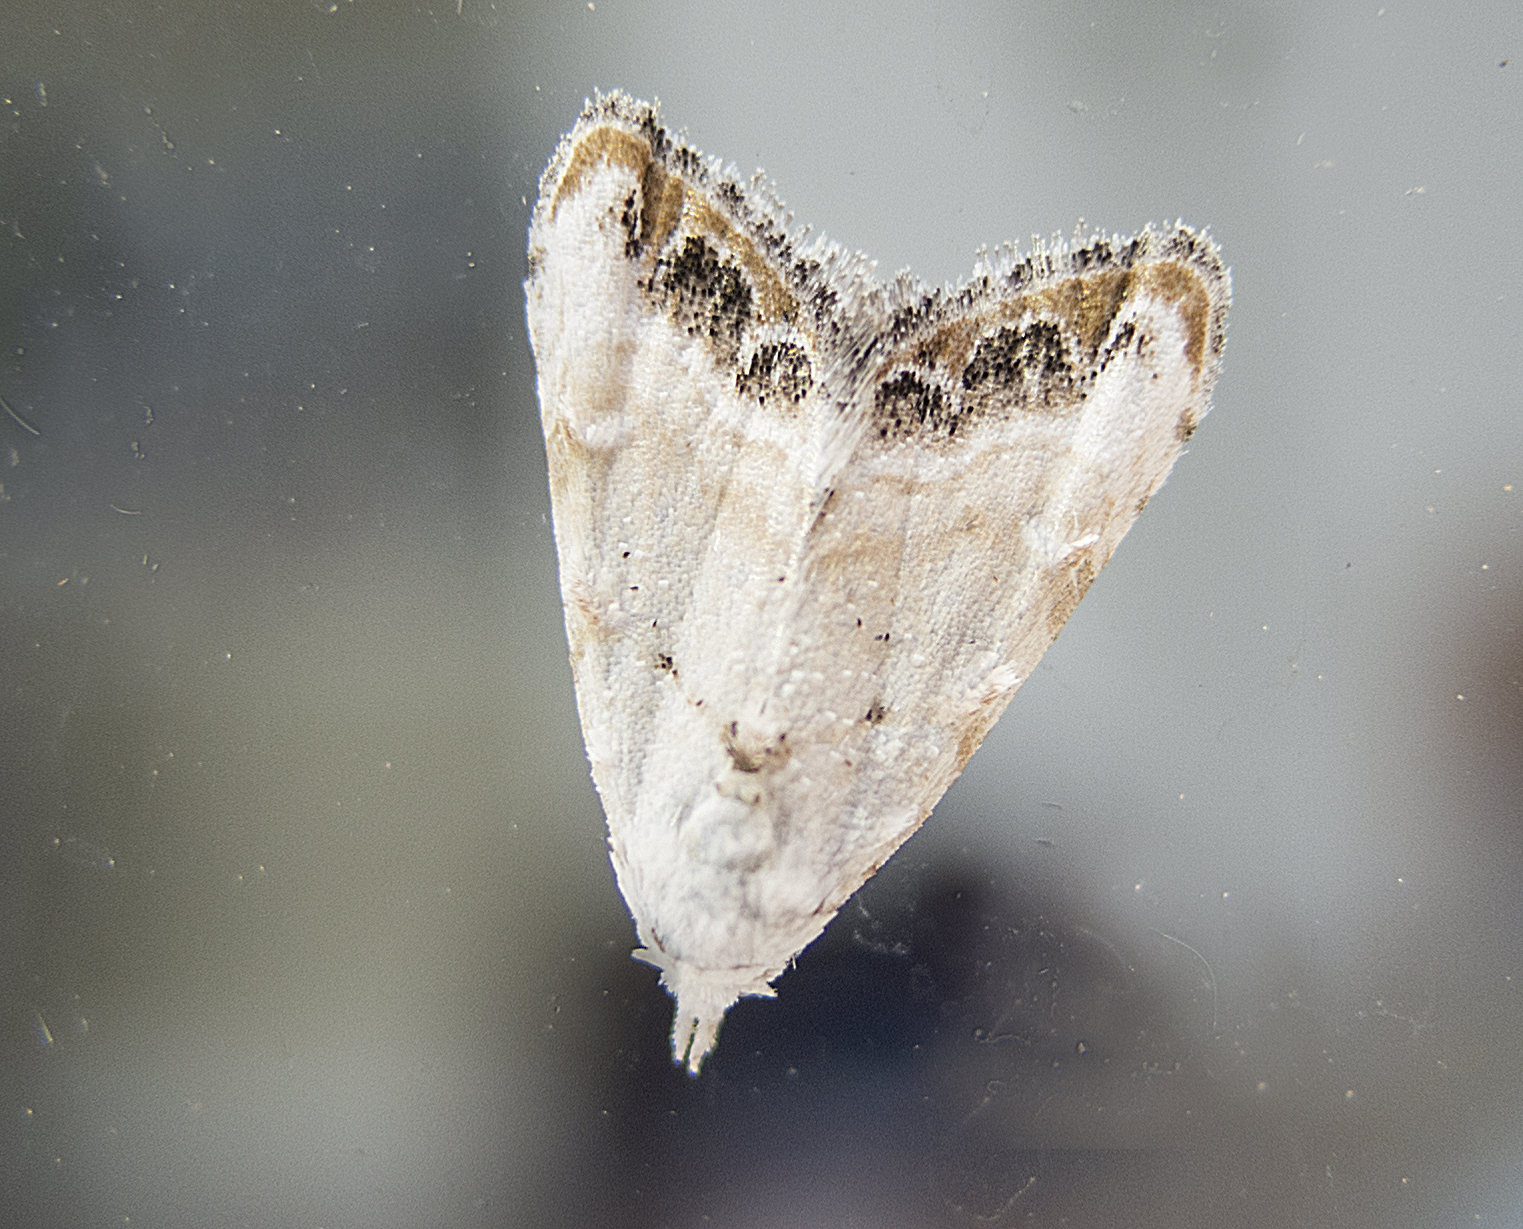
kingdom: Animalia
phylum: Arthropoda
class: Insecta
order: Lepidoptera
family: Nolidae
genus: Nola
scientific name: Nola chlamitulalis
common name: Jersey black arches
